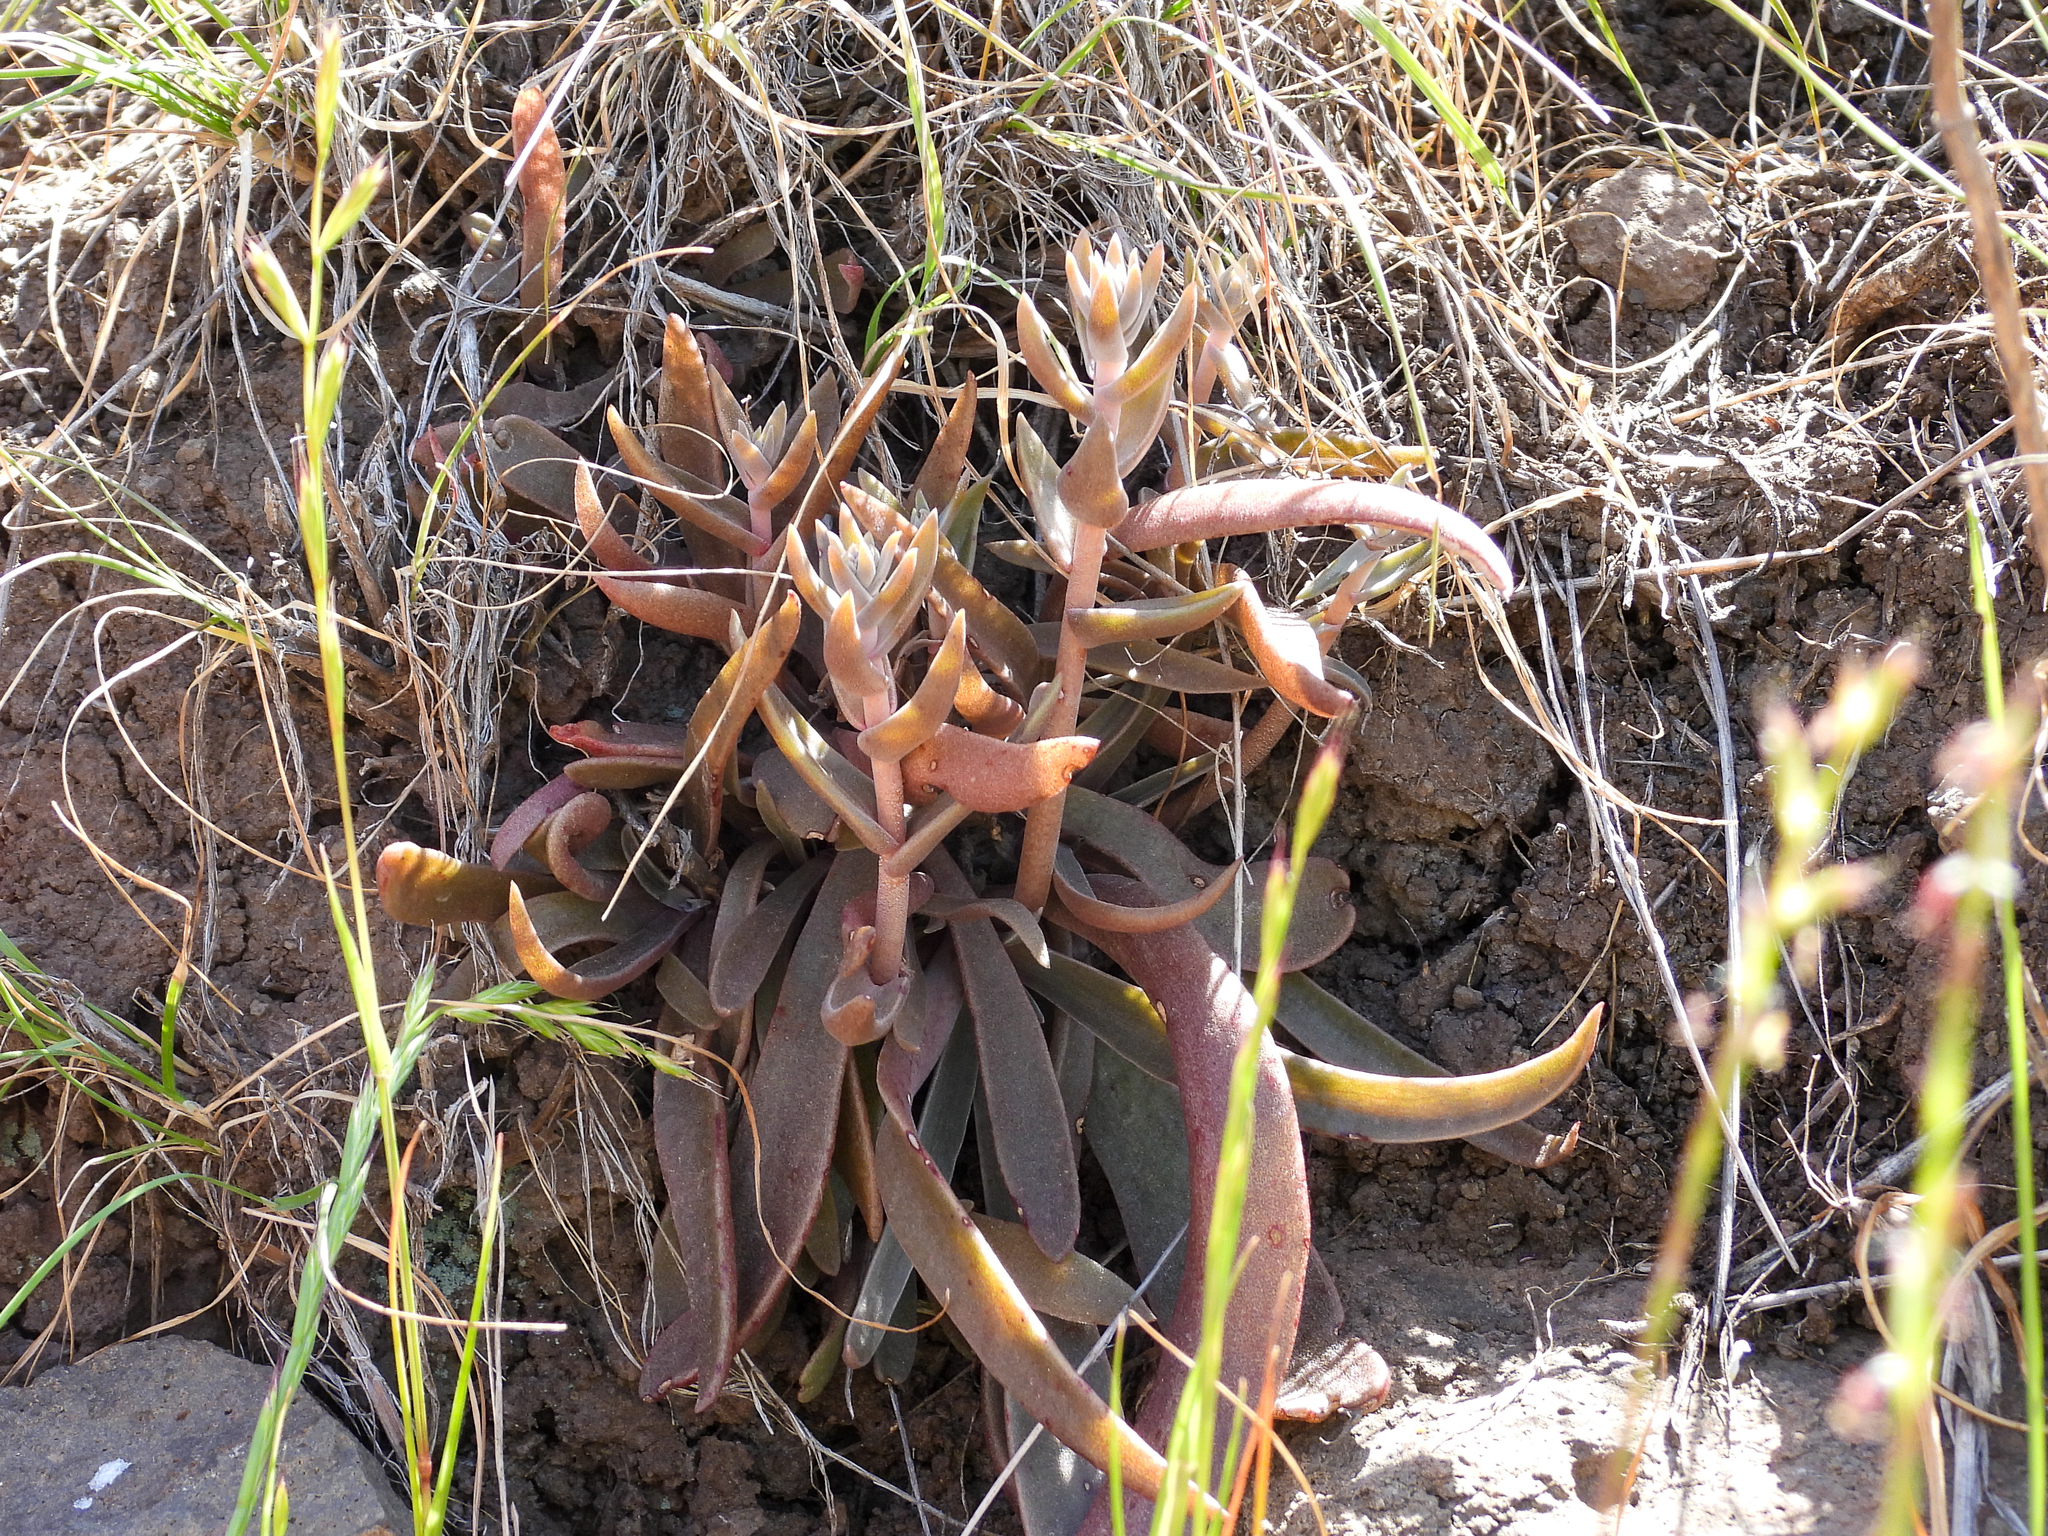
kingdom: Plantae
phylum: Tracheophyta
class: Magnoliopsida
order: Saxifragales
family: Crassulaceae
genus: Dudleya
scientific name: Dudleya parva
